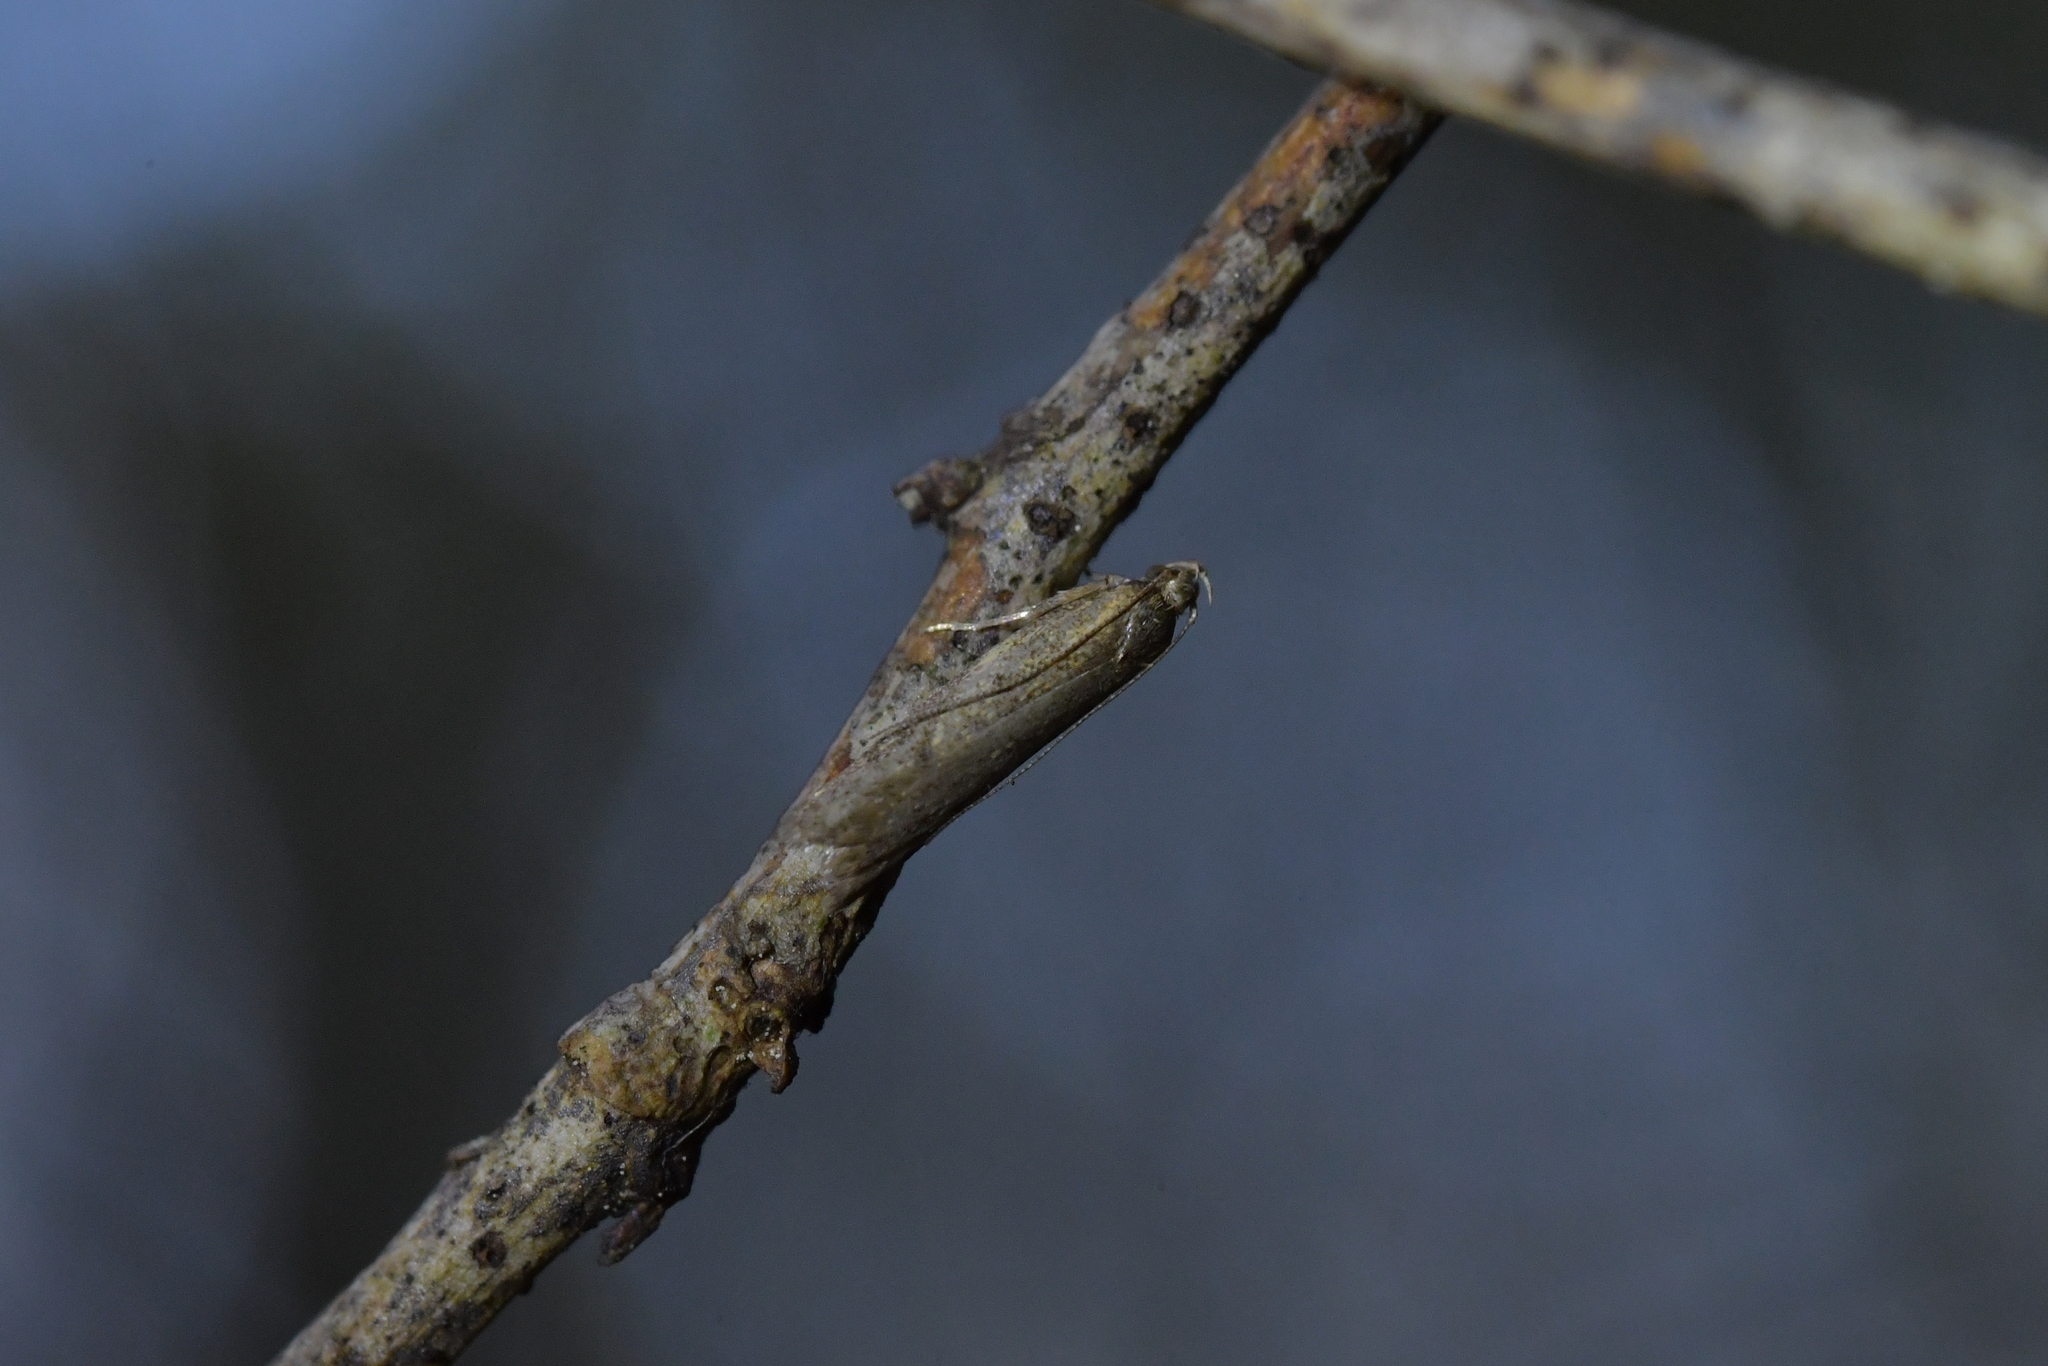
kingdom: Animalia
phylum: Arthropoda
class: Insecta
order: Lepidoptera
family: Oecophoridae
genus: Gymnobathra
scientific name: Gymnobathra tholodella
